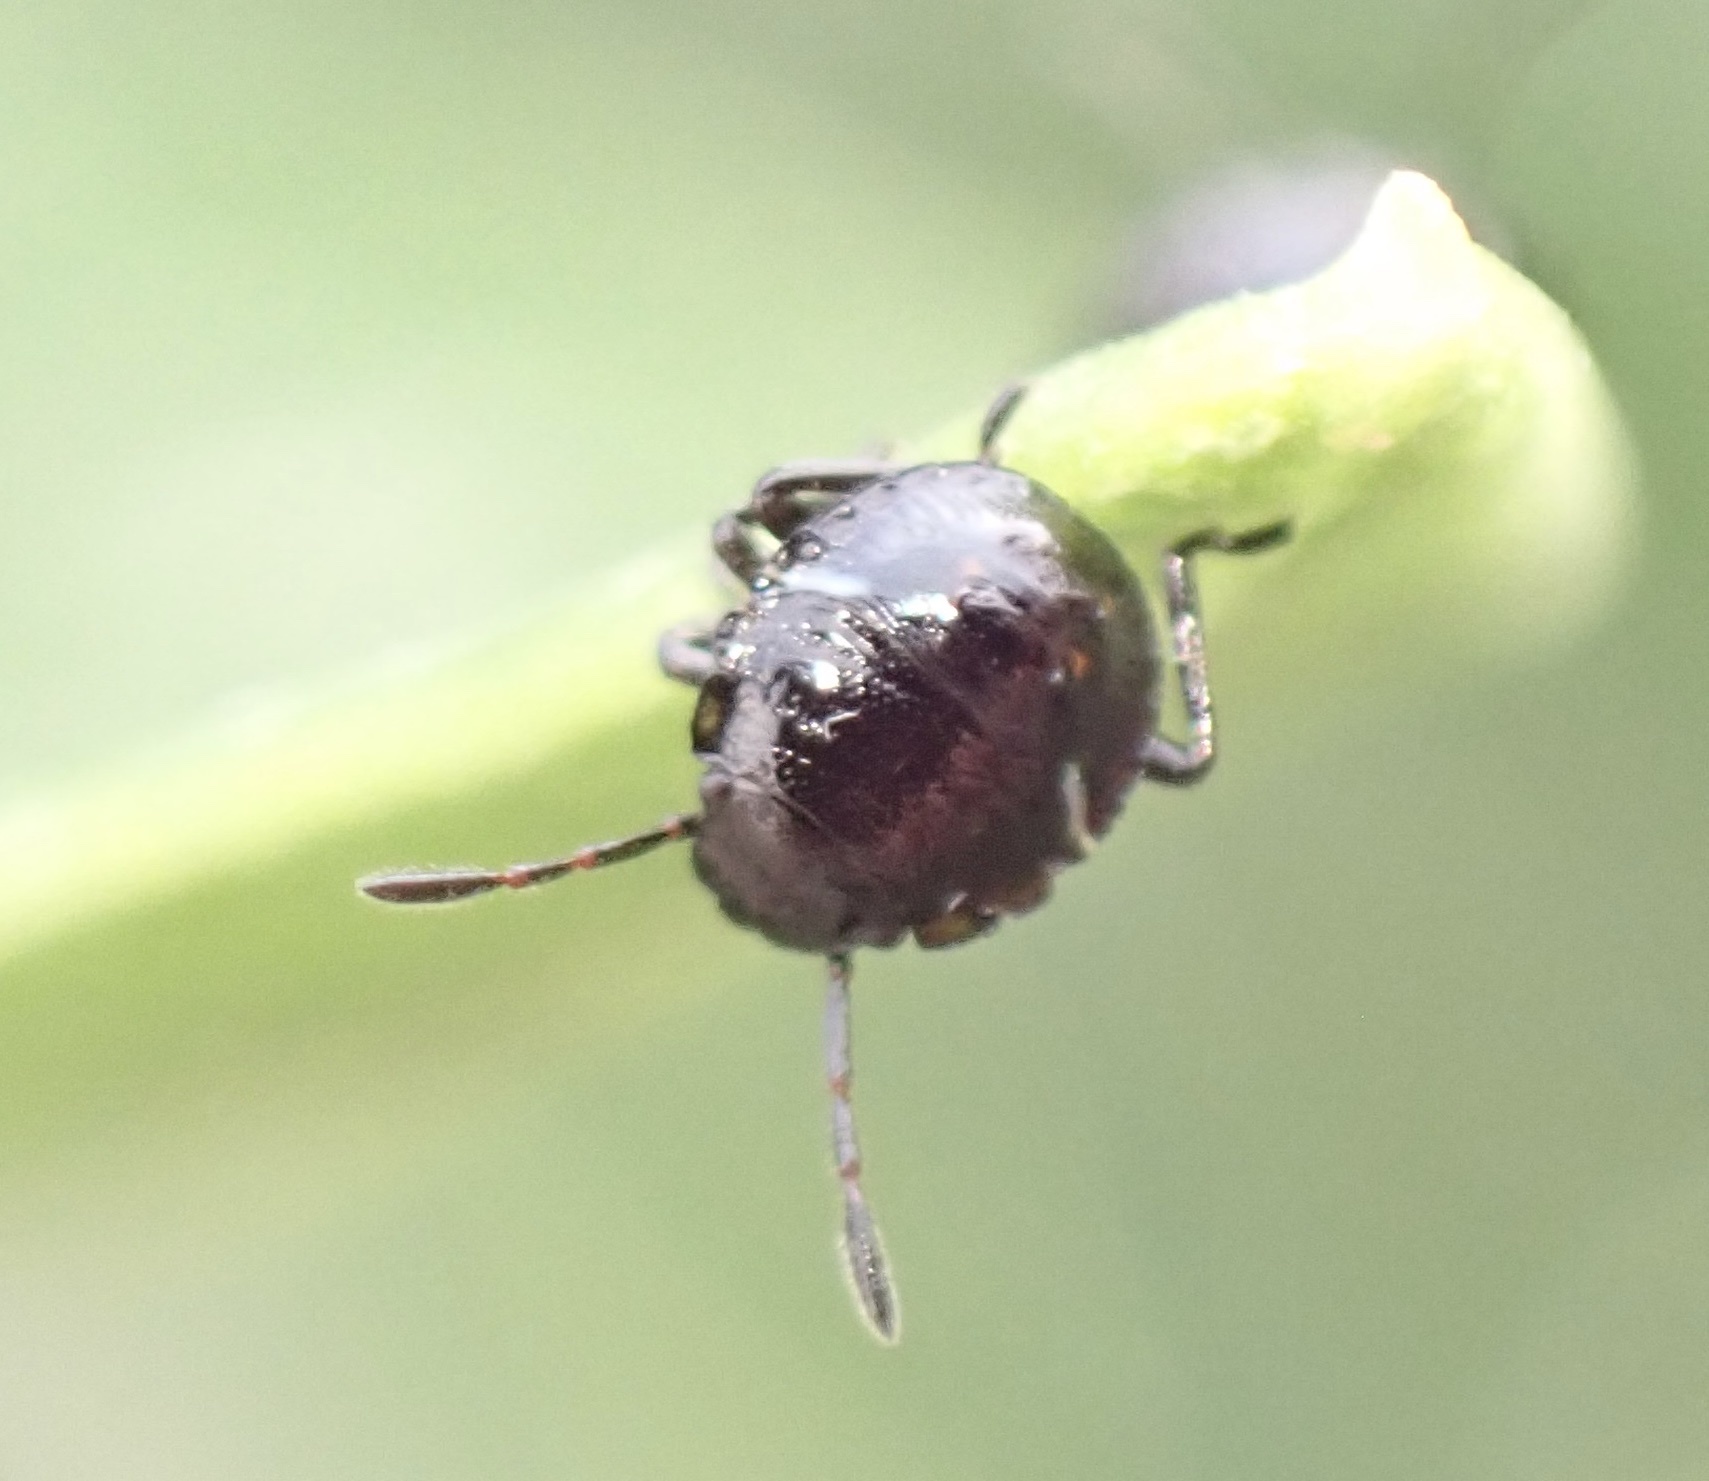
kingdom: Animalia
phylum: Arthropoda
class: Insecta
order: Hemiptera
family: Pentatomidae
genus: Nezara
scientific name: Nezara viridula
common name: Southern green stink bug
